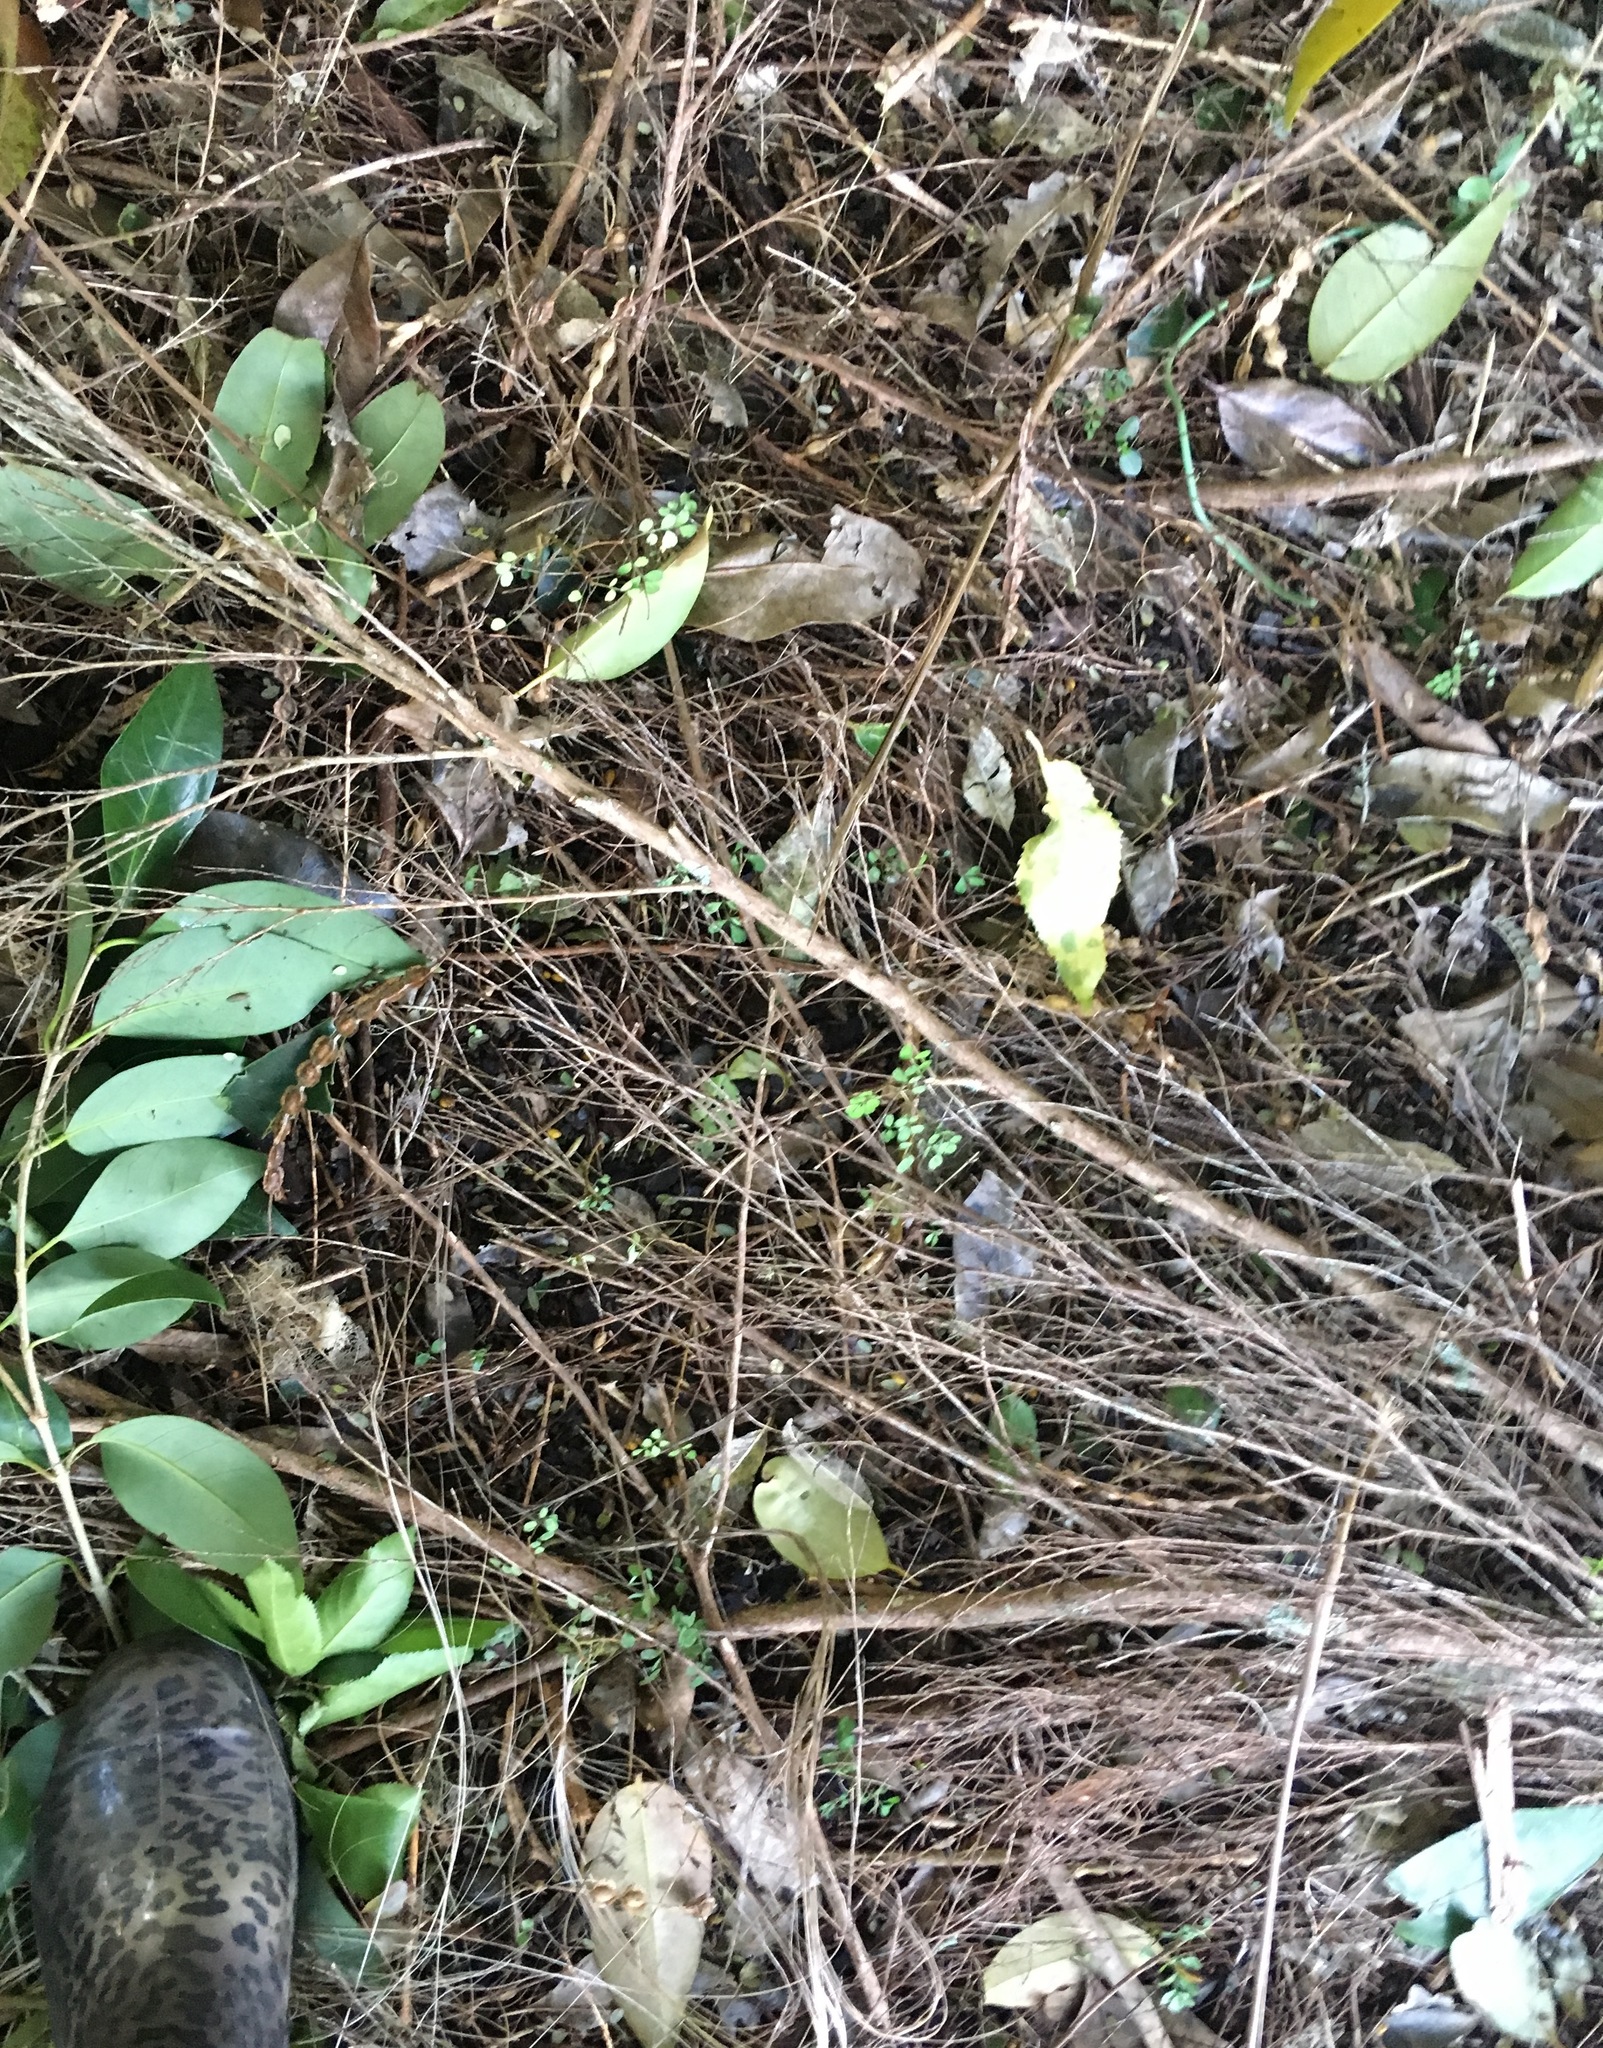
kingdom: Plantae
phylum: Tracheophyta
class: Magnoliopsida
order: Lamiales
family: Oleaceae
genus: Ligustrum
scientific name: Ligustrum lucidum
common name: Glossy privet
